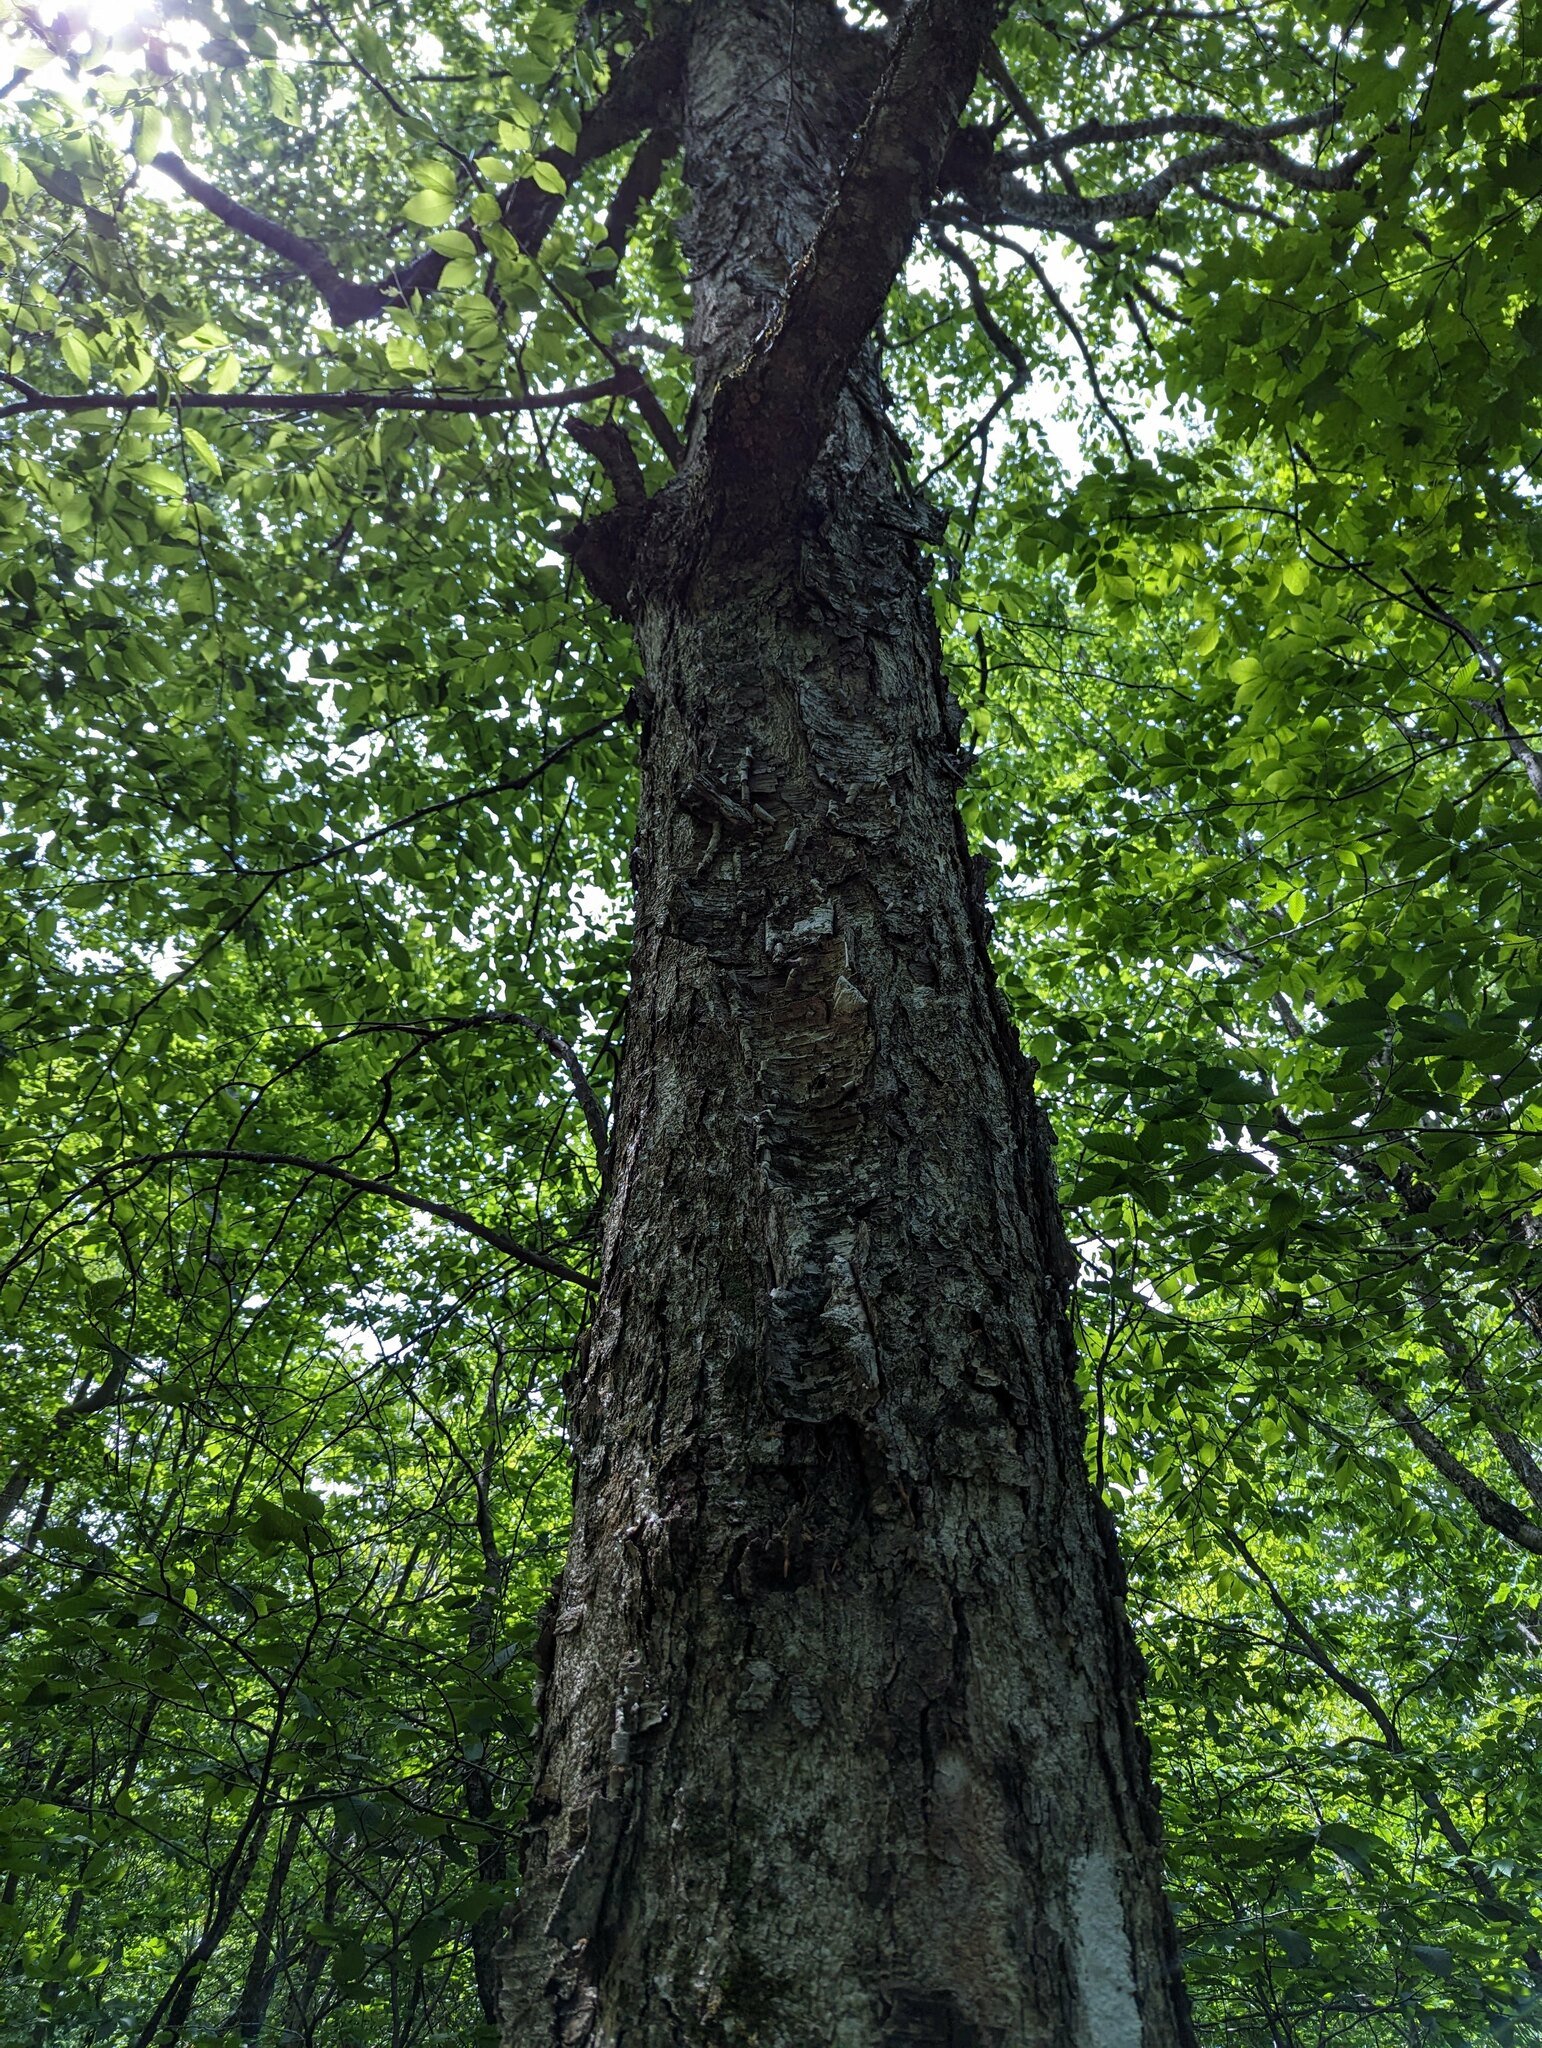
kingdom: Plantae
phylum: Tracheophyta
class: Magnoliopsida
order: Fagales
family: Betulaceae
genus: Betula
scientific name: Betula alleghaniensis
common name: Yellow birch
